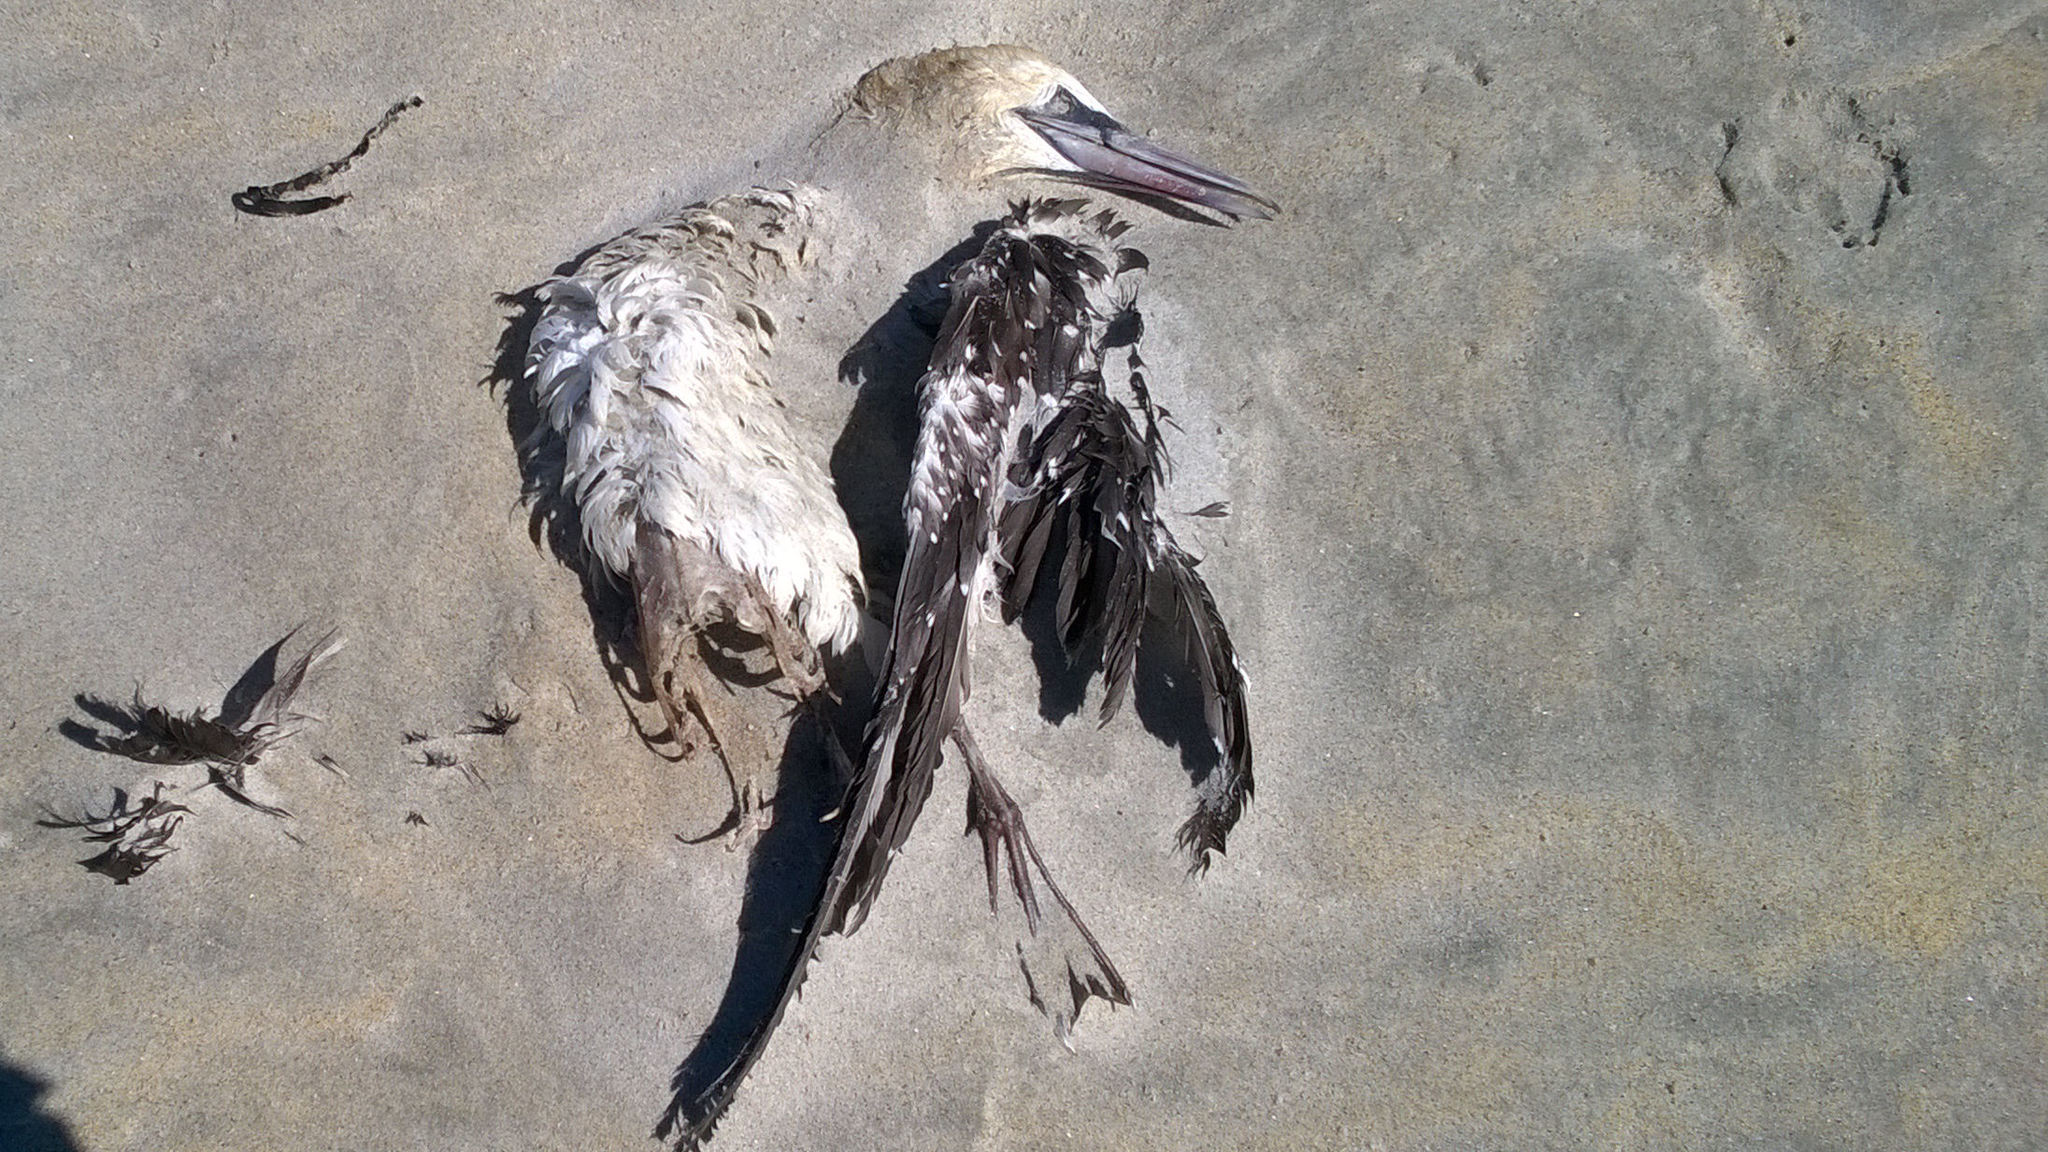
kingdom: Animalia
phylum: Chordata
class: Aves
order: Suliformes
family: Sulidae
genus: Morus
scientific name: Morus serrator
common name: Australasian gannet
